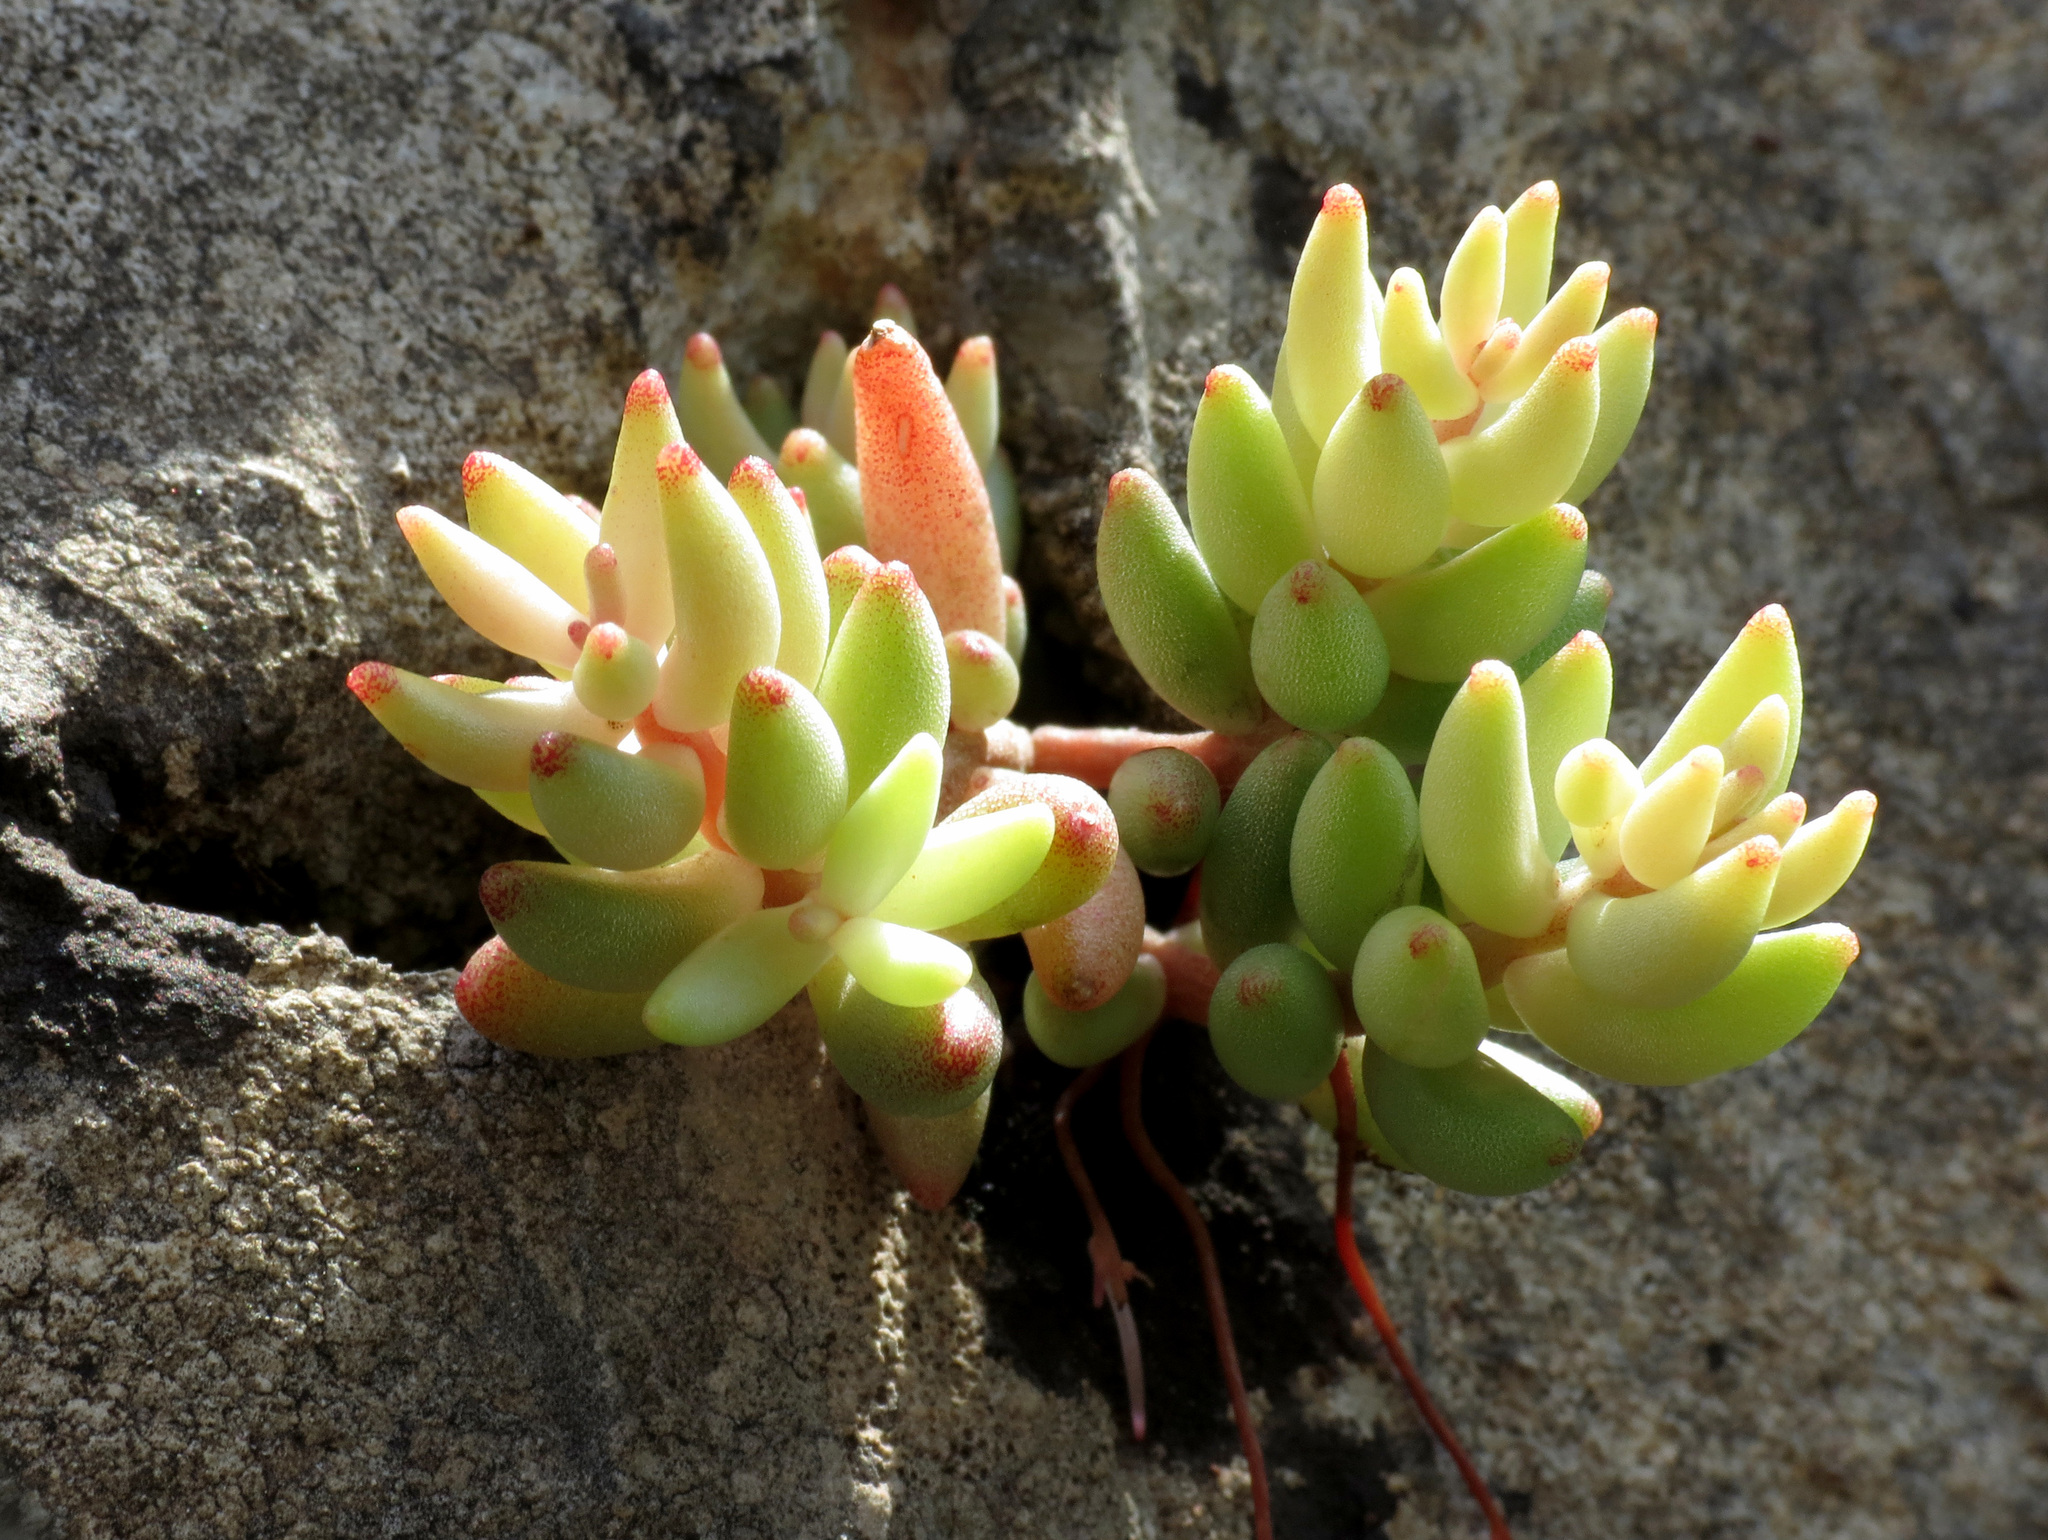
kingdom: Plantae
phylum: Tracheophyta
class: Magnoliopsida
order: Saxifragales
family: Crassulaceae
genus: Sedum
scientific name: Sedum album
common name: White stonecrop
